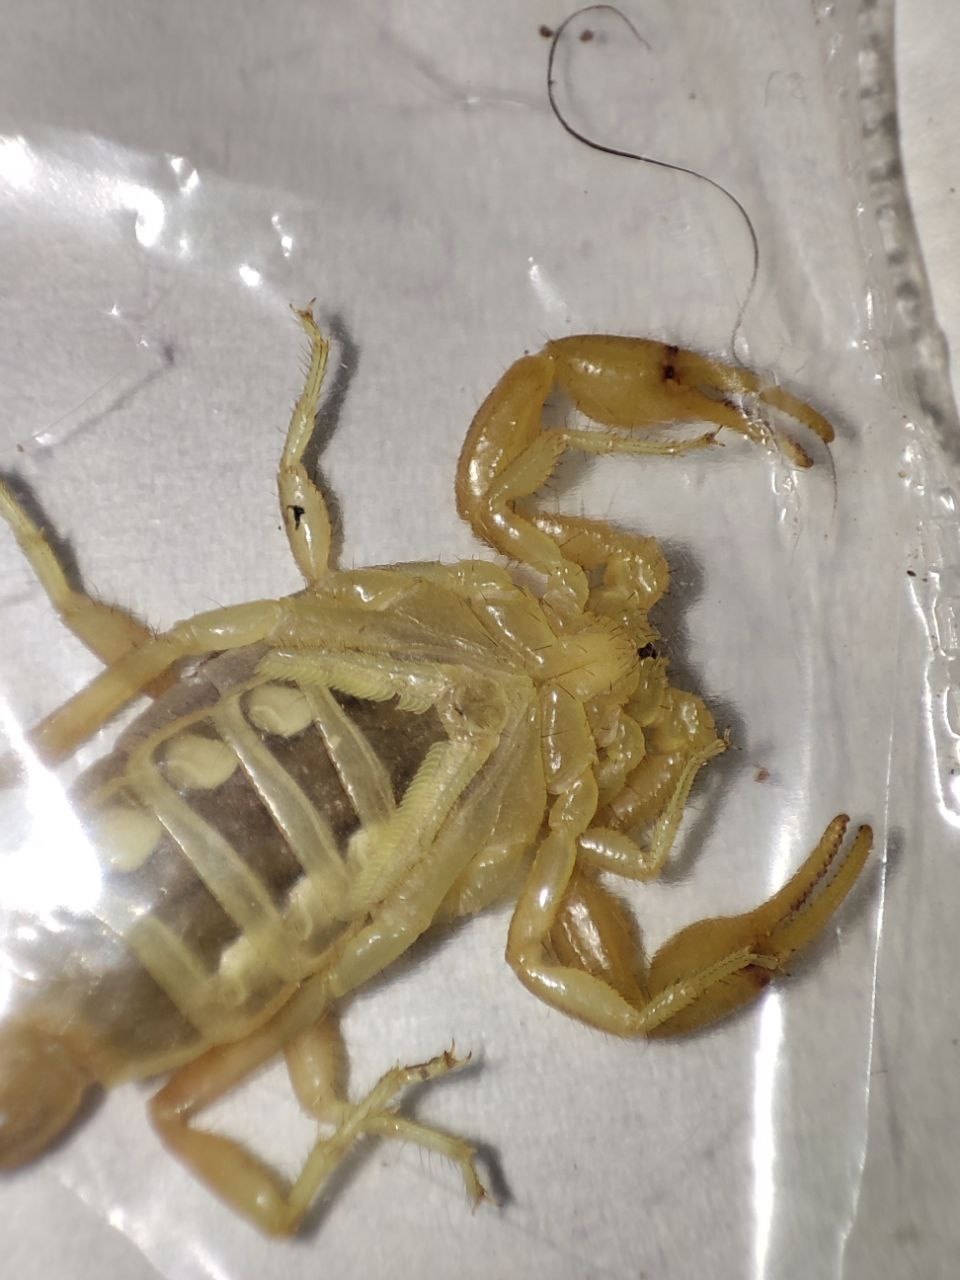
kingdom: Animalia
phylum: Arthropoda
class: Arachnida
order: Scorpiones
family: Buthidae
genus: Mesobuthus
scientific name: Mesobuthus phillipsi
